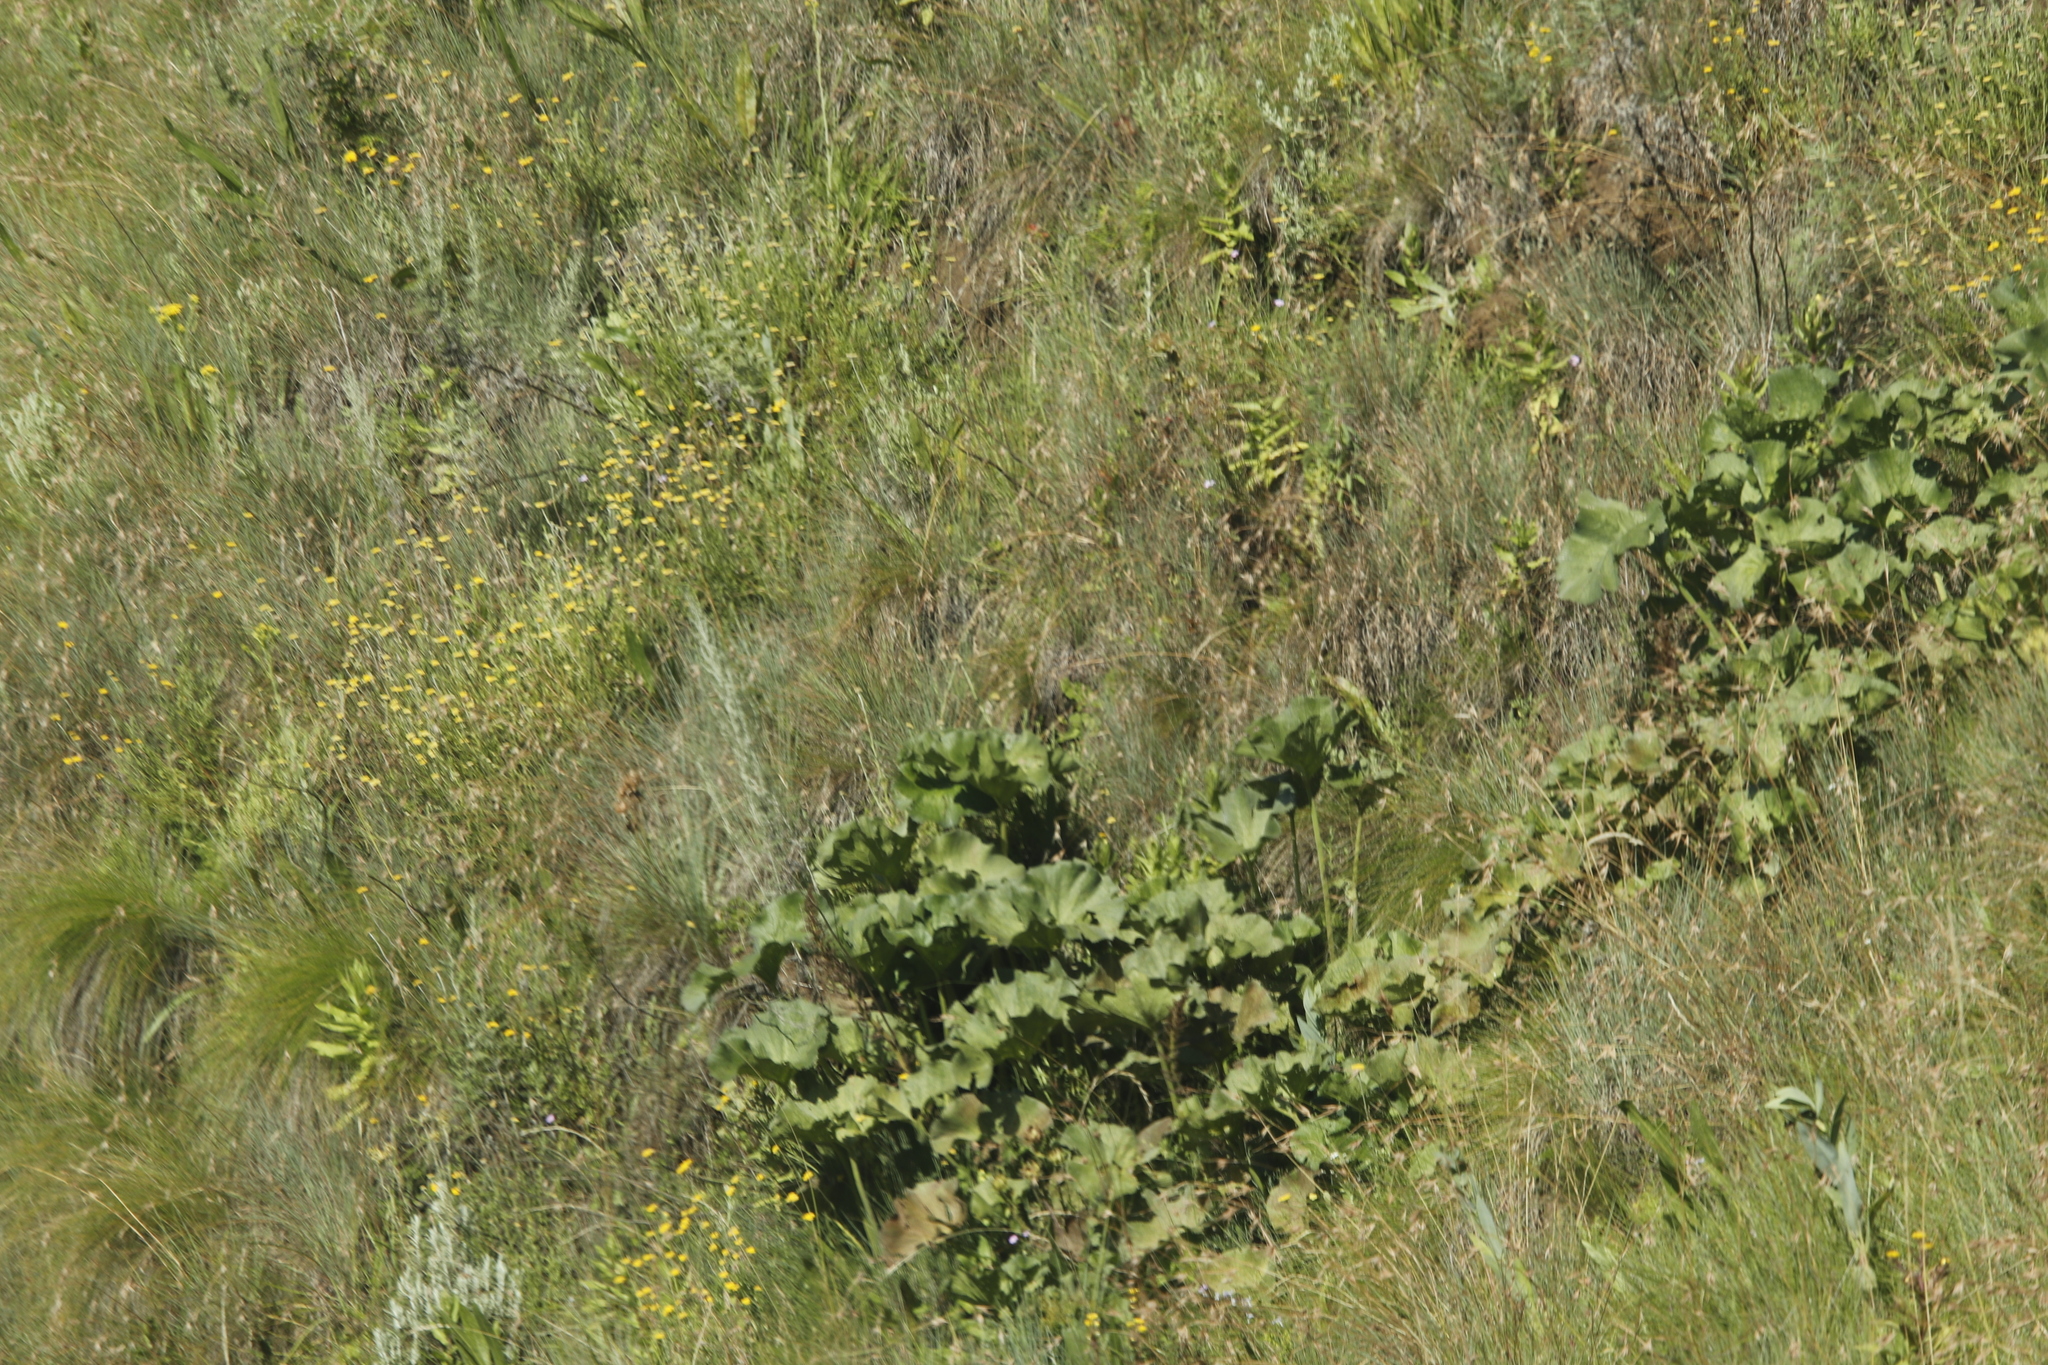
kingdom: Plantae
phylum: Tracheophyta
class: Magnoliopsida
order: Gunnerales
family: Gunneraceae
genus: Gunnera
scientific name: Gunnera perpensa
